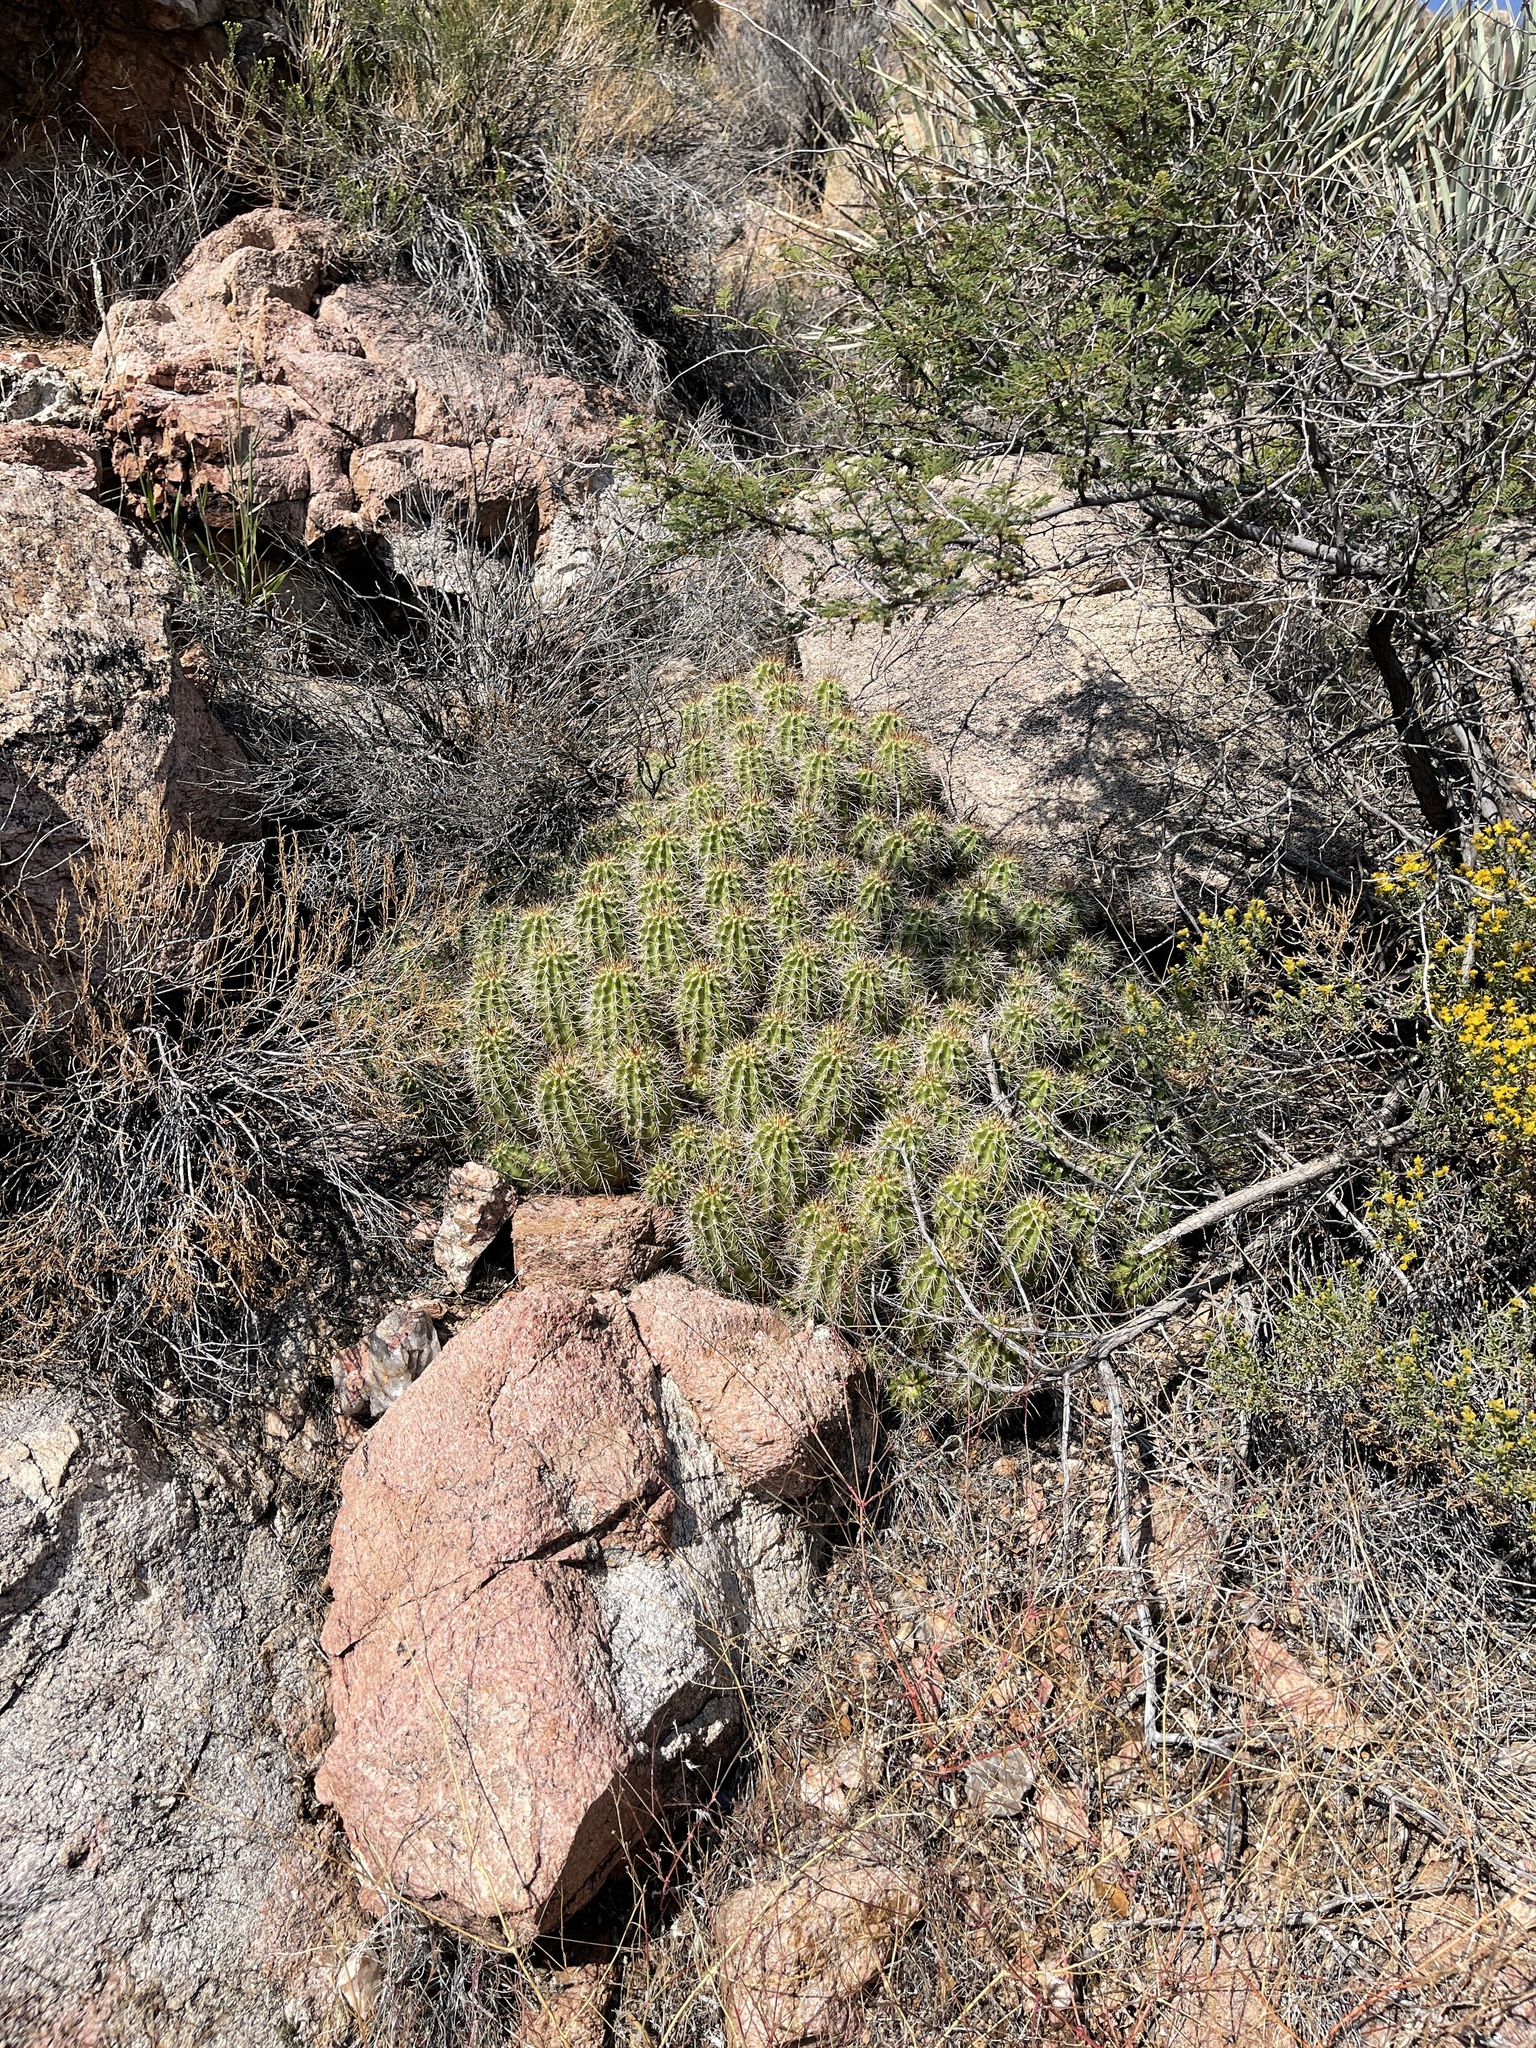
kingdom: Plantae
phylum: Tracheophyta
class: Magnoliopsida
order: Caryophyllales
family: Cactaceae
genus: Echinocereus
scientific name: Echinocereus bakeri
